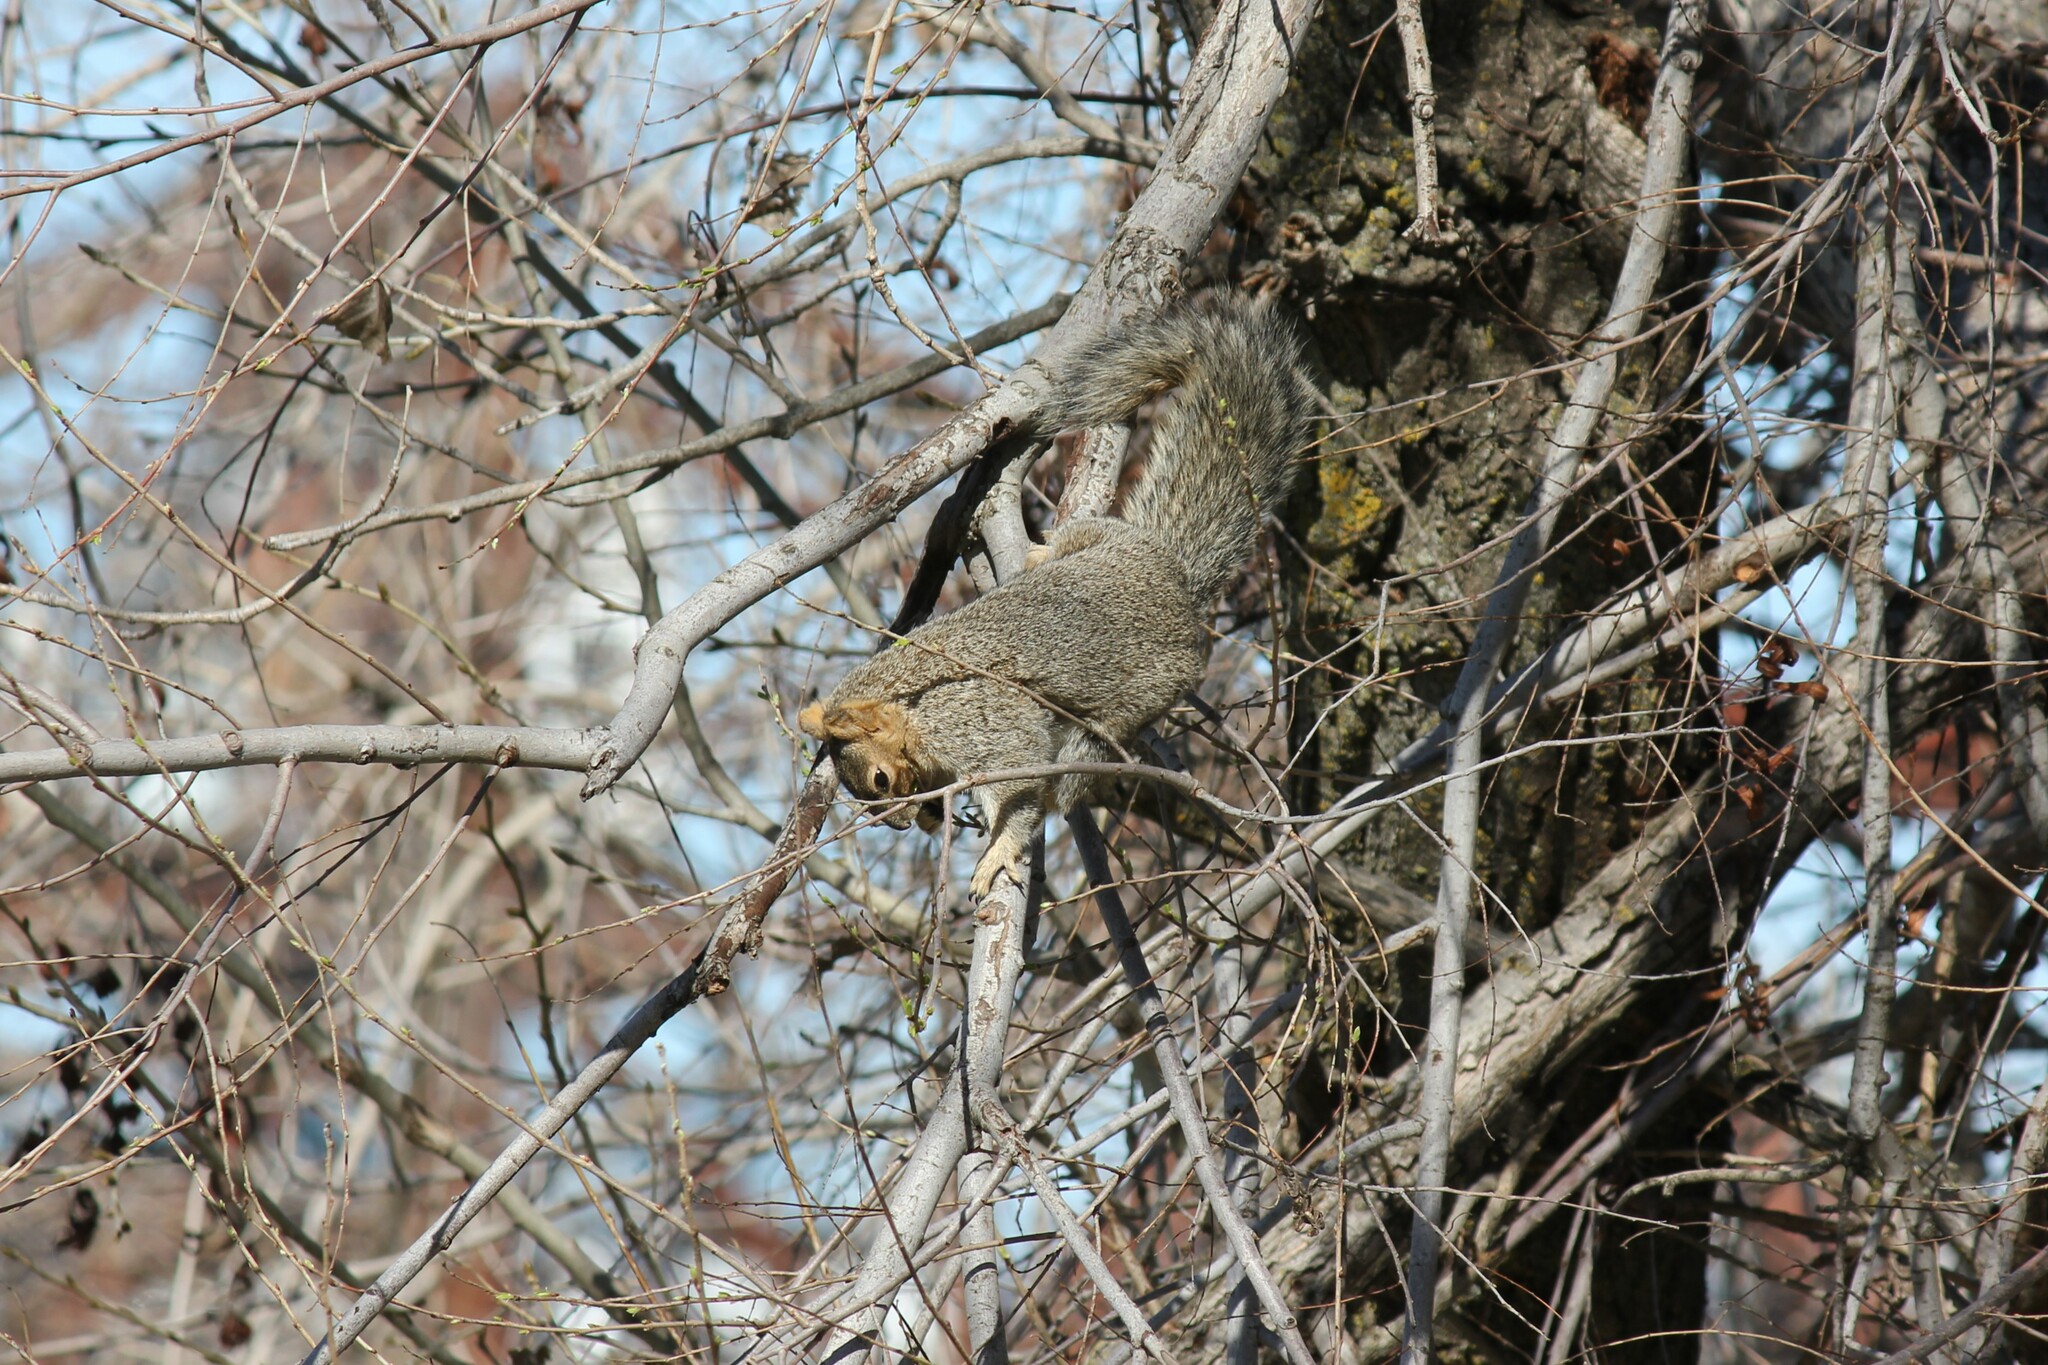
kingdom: Animalia
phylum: Chordata
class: Mammalia
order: Rodentia
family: Sciuridae
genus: Sciurus
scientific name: Sciurus niger
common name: Fox squirrel
